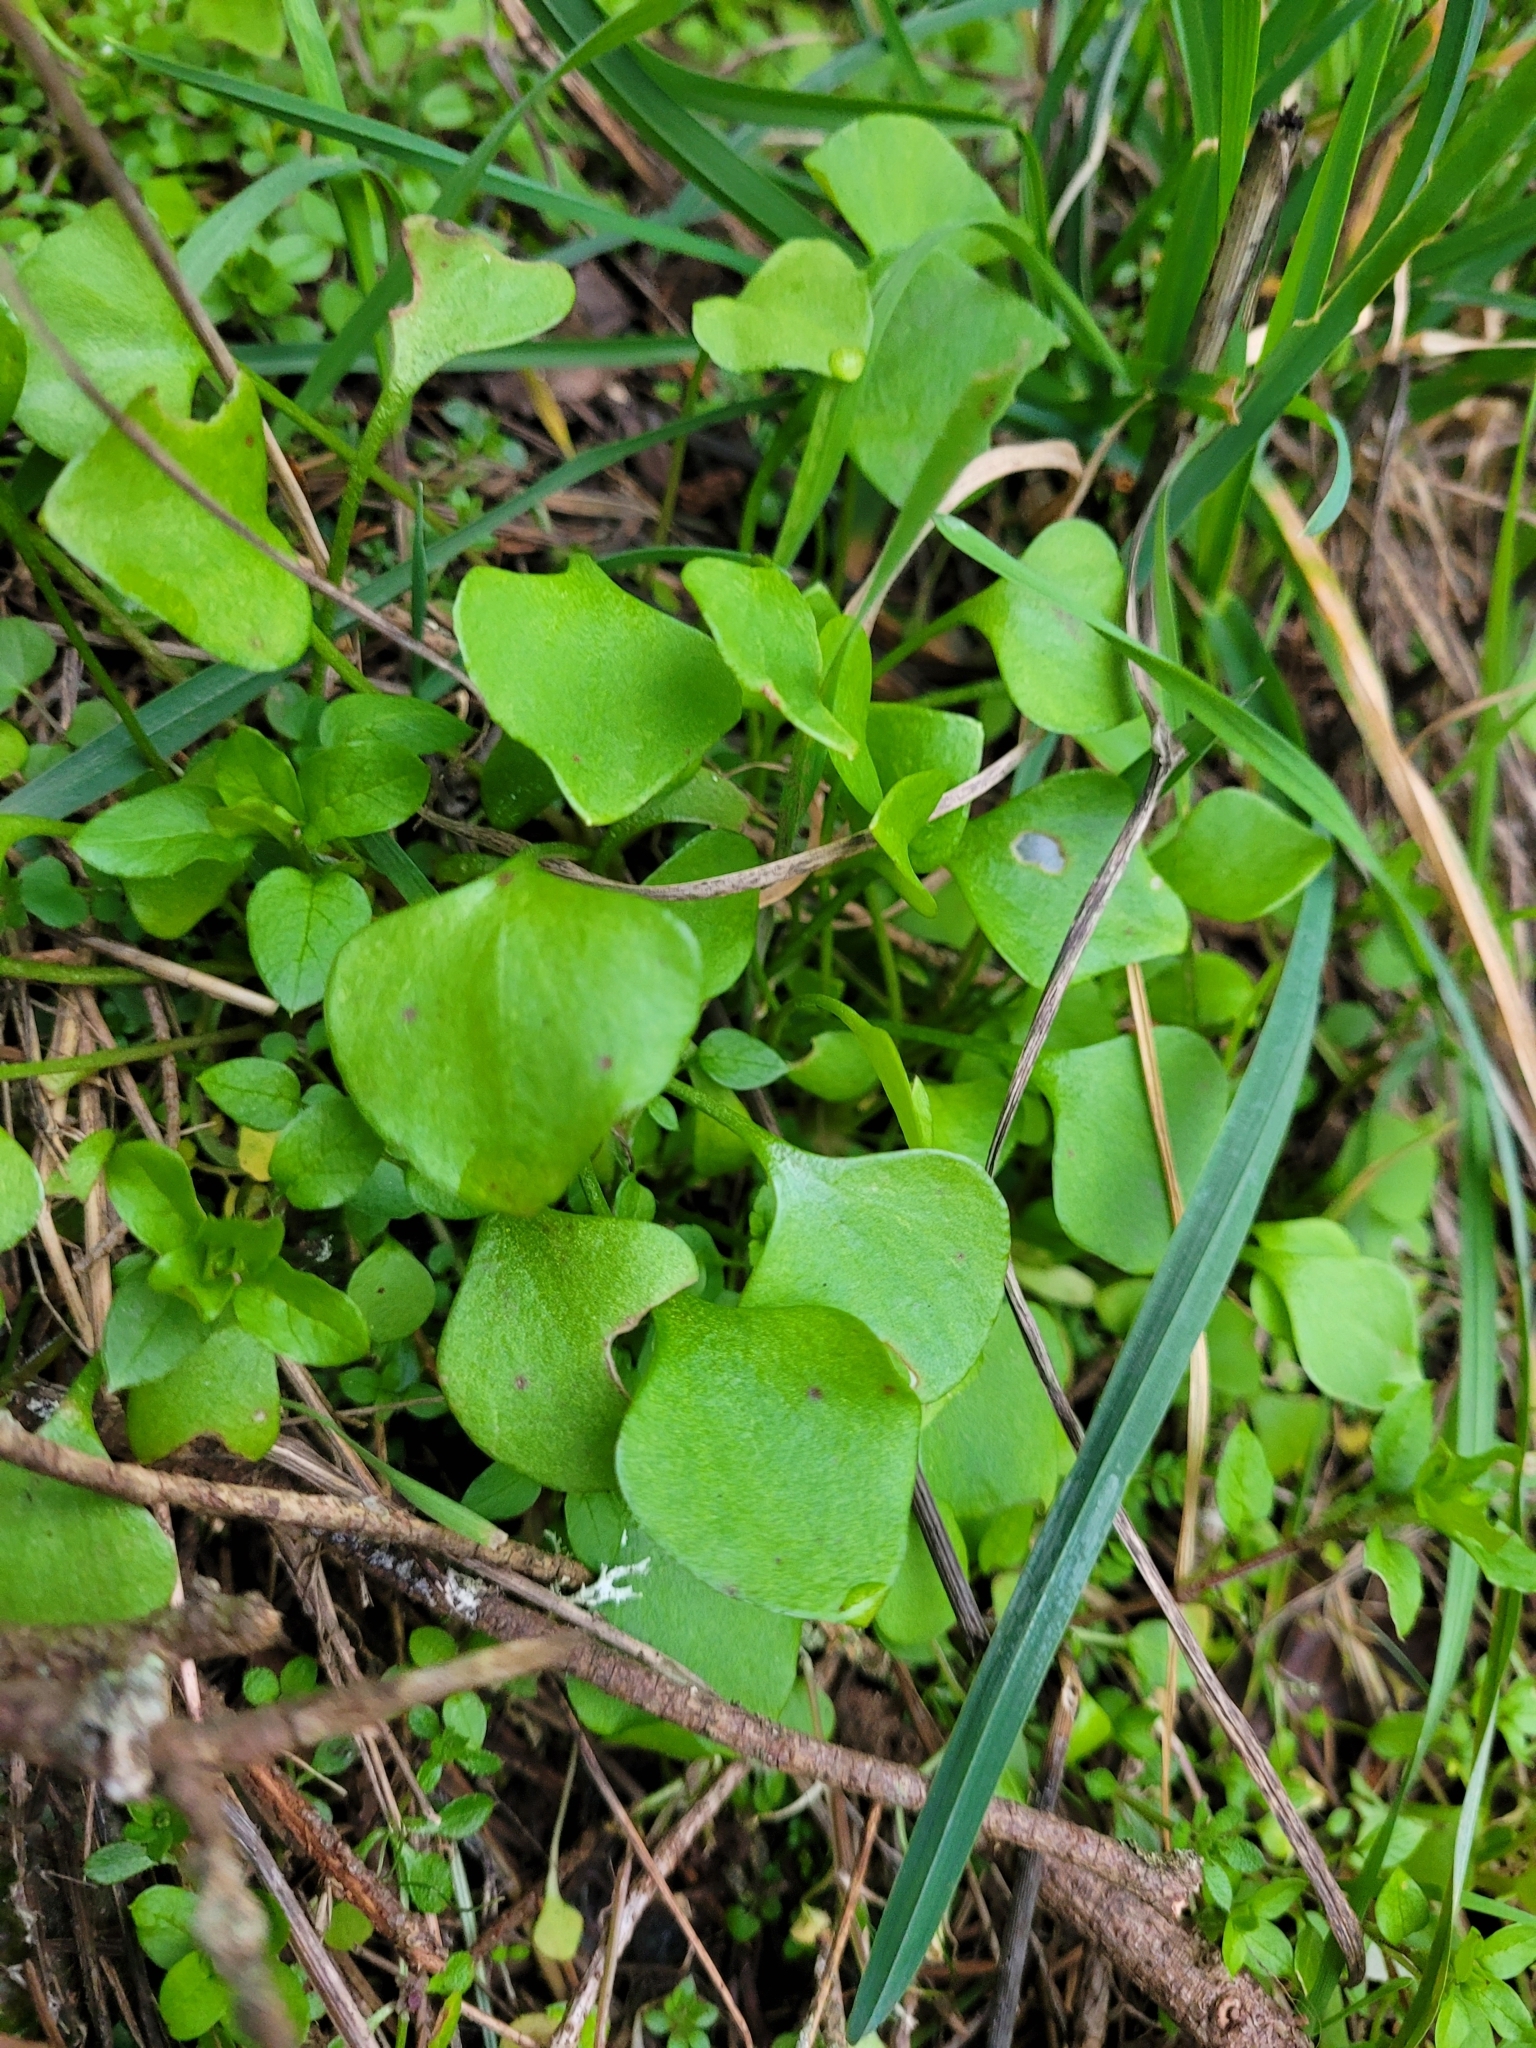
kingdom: Plantae
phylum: Tracheophyta
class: Magnoliopsida
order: Caryophyllales
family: Montiaceae
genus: Claytonia
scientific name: Claytonia perfoliata
